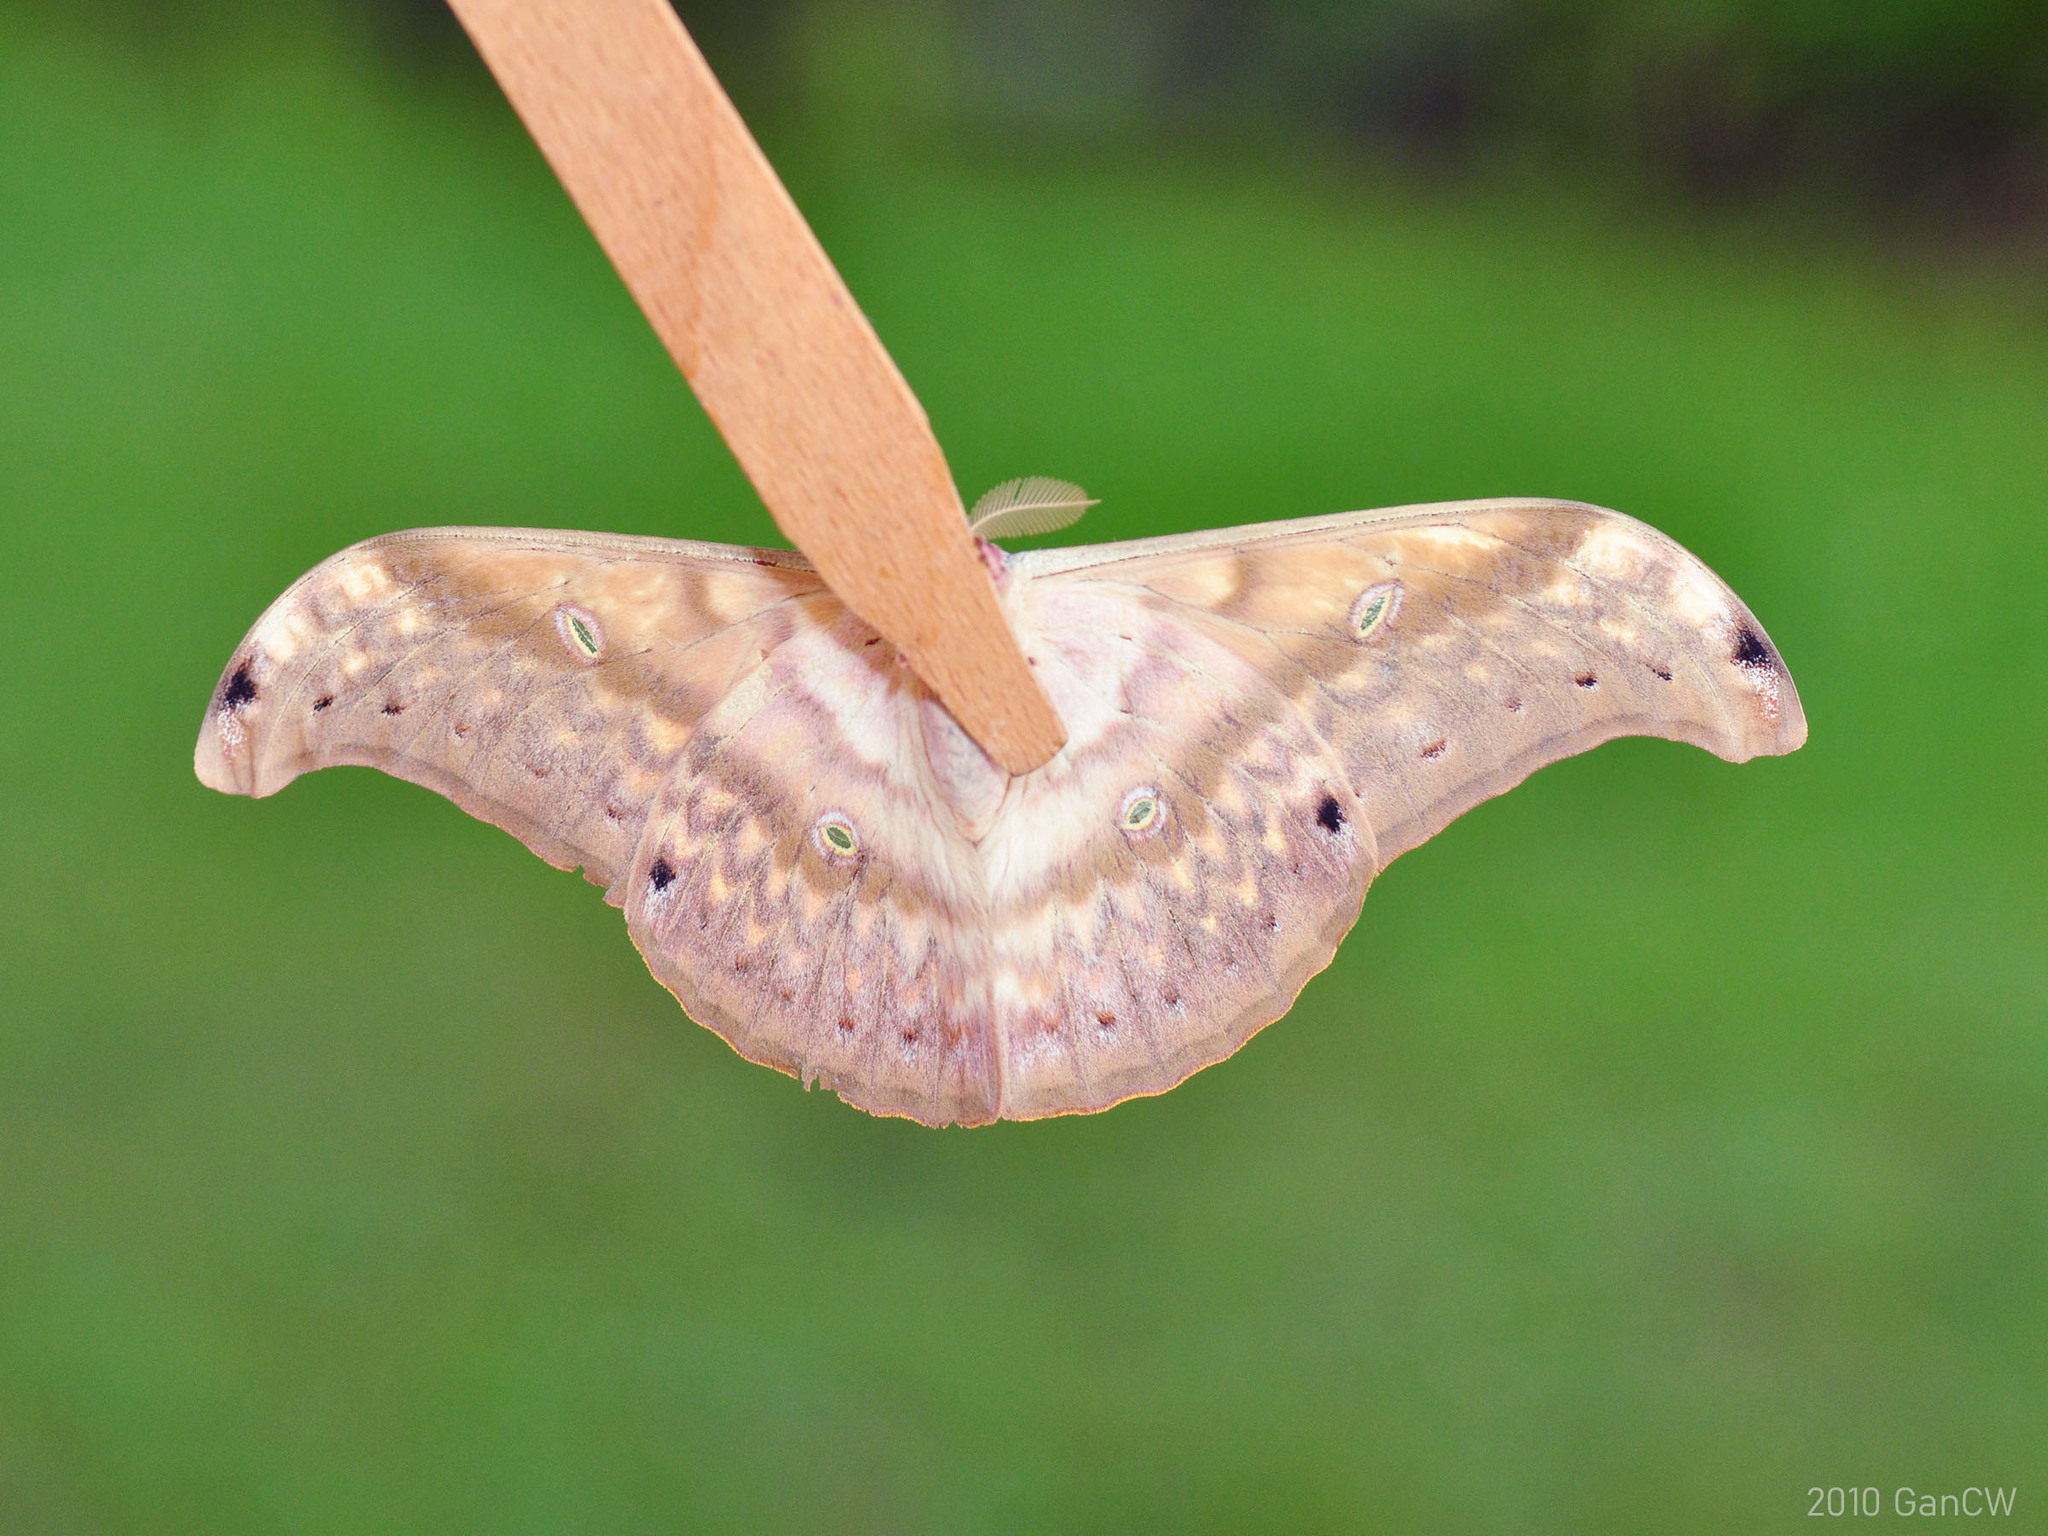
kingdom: Animalia
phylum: Arthropoda
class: Insecta
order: Lepidoptera
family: Saturniidae
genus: Antheraea
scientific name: Antheraea larissa
